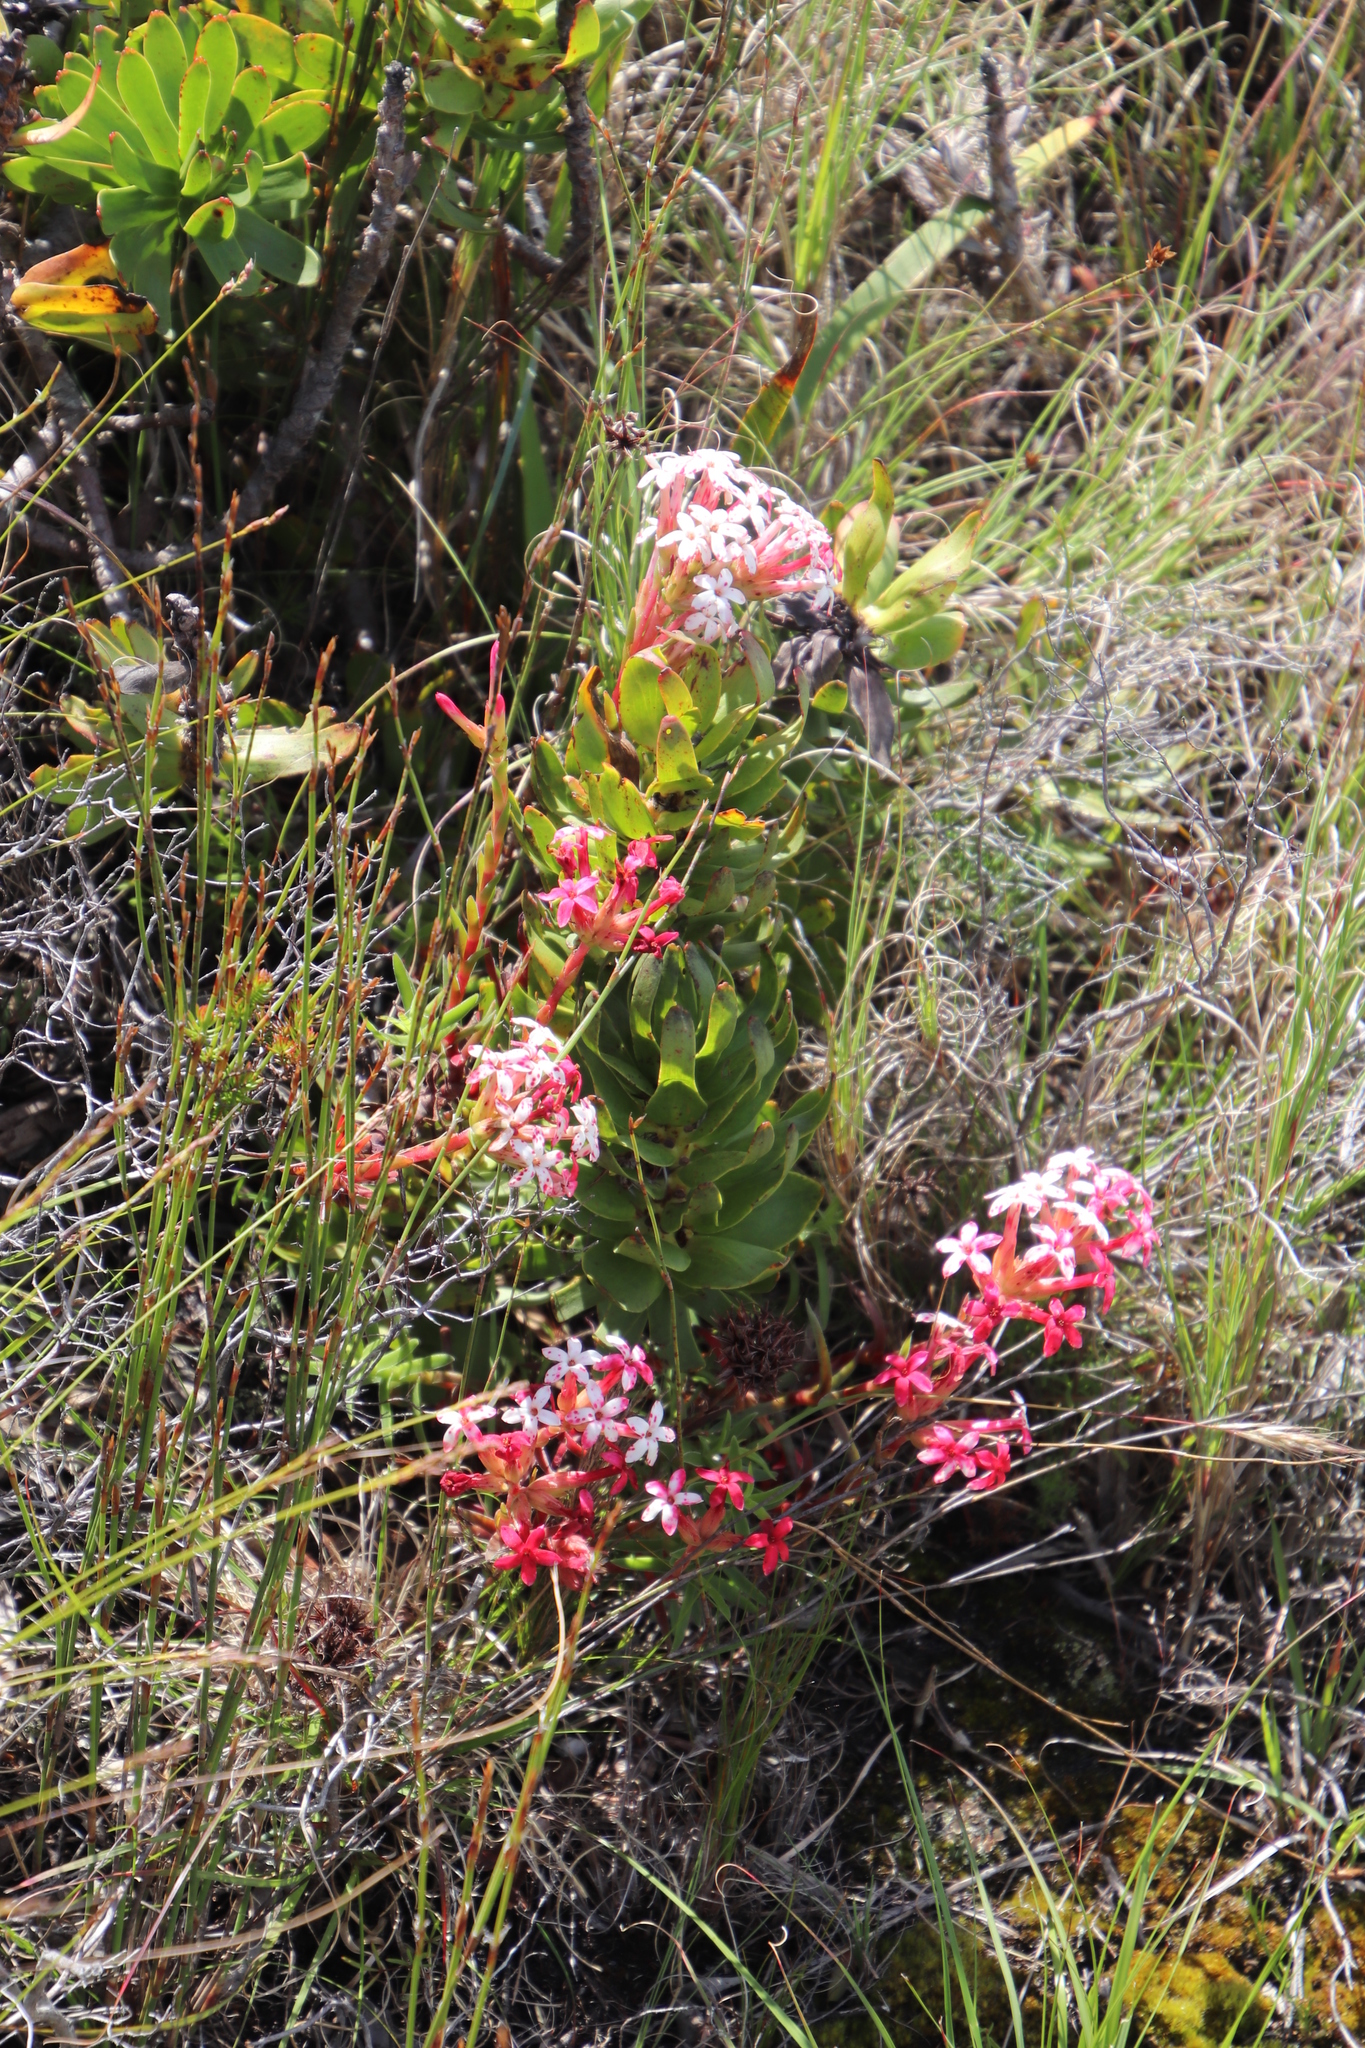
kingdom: Plantae
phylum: Tracheophyta
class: Magnoliopsida
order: Saxifragales
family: Crassulaceae
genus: Crassula
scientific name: Crassula fascicularis
